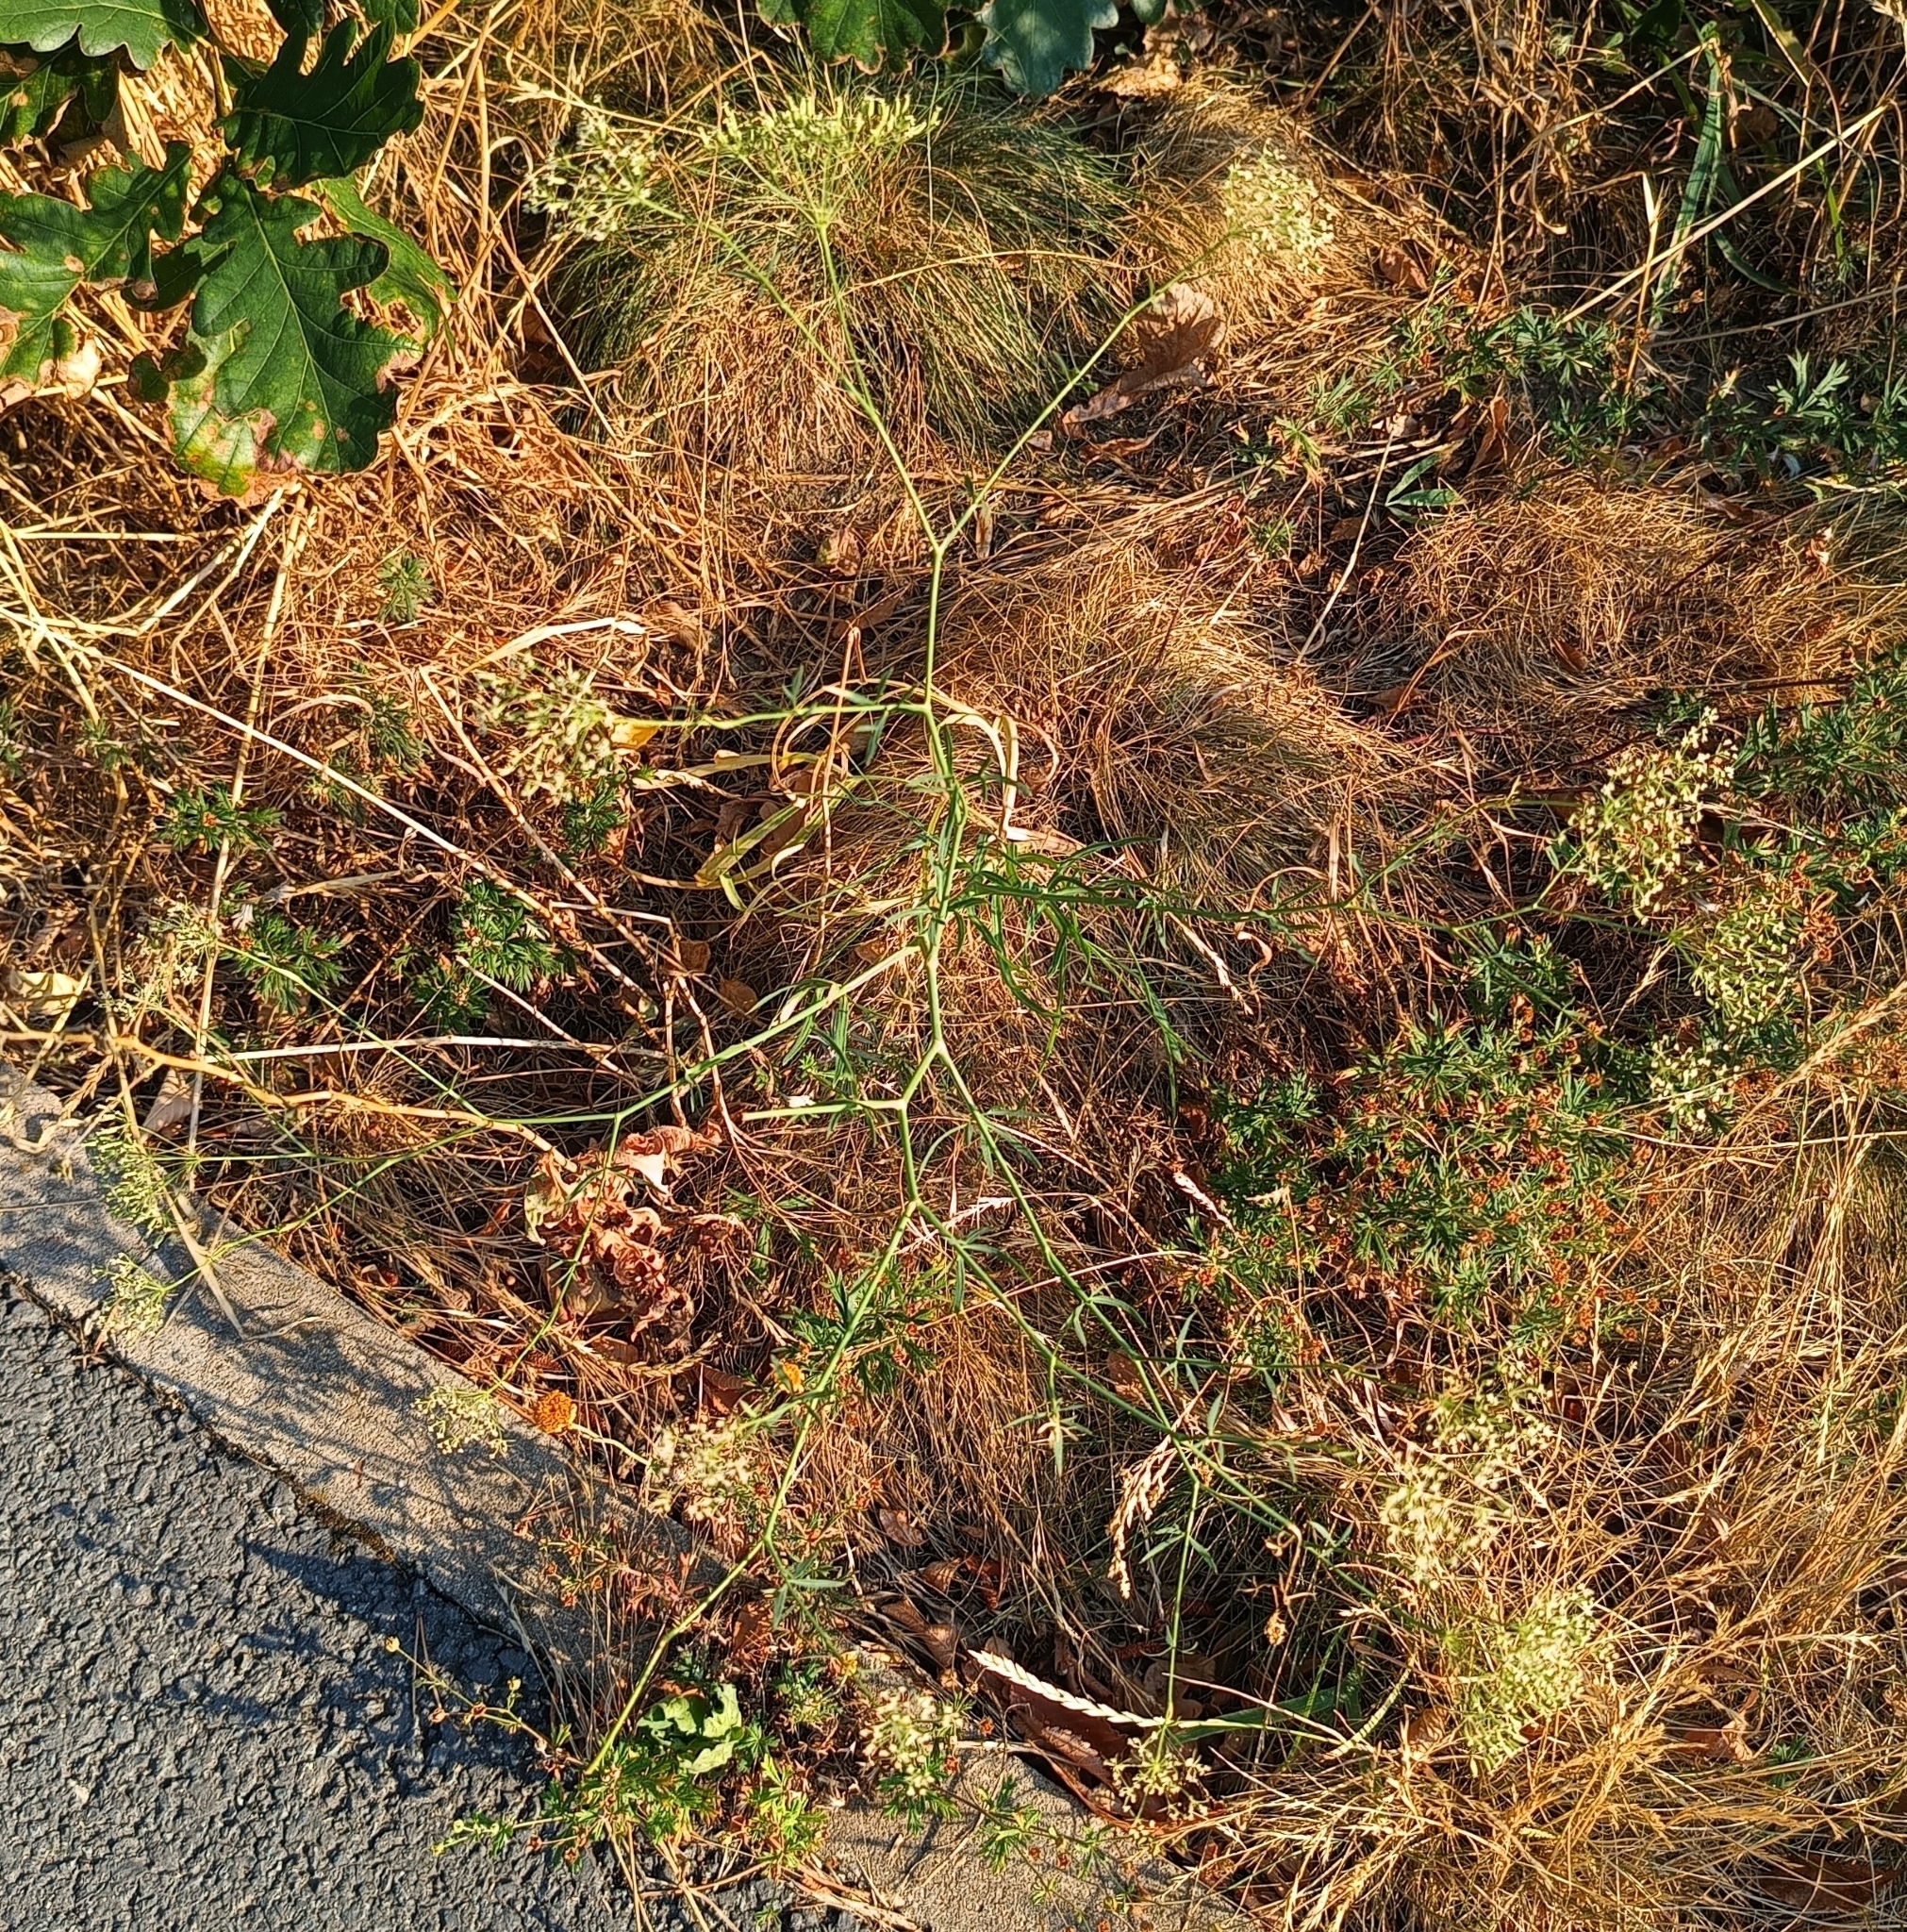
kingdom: Plantae
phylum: Tracheophyta
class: Magnoliopsida
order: Apiales
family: Apiaceae
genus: Falcaria
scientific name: Falcaria vulgaris
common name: Longleaf
